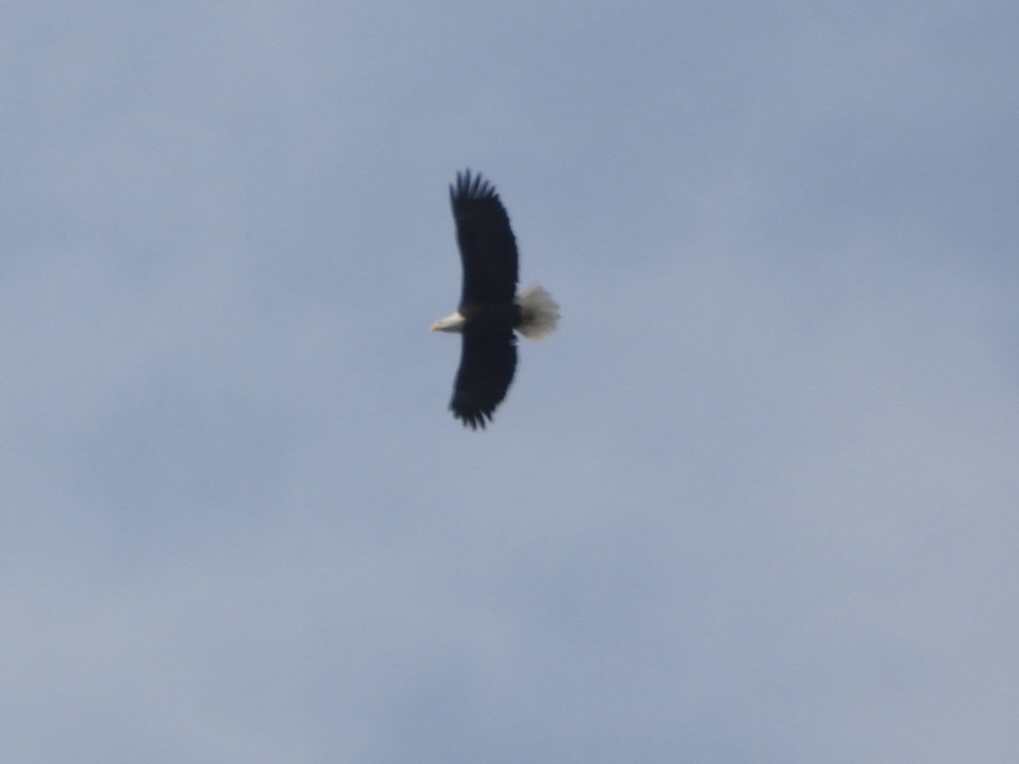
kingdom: Animalia
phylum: Chordata
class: Aves
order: Accipitriformes
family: Accipitridae
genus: Haliaeetus
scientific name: Haliaeetus leucocephalus
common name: Bald eagle
